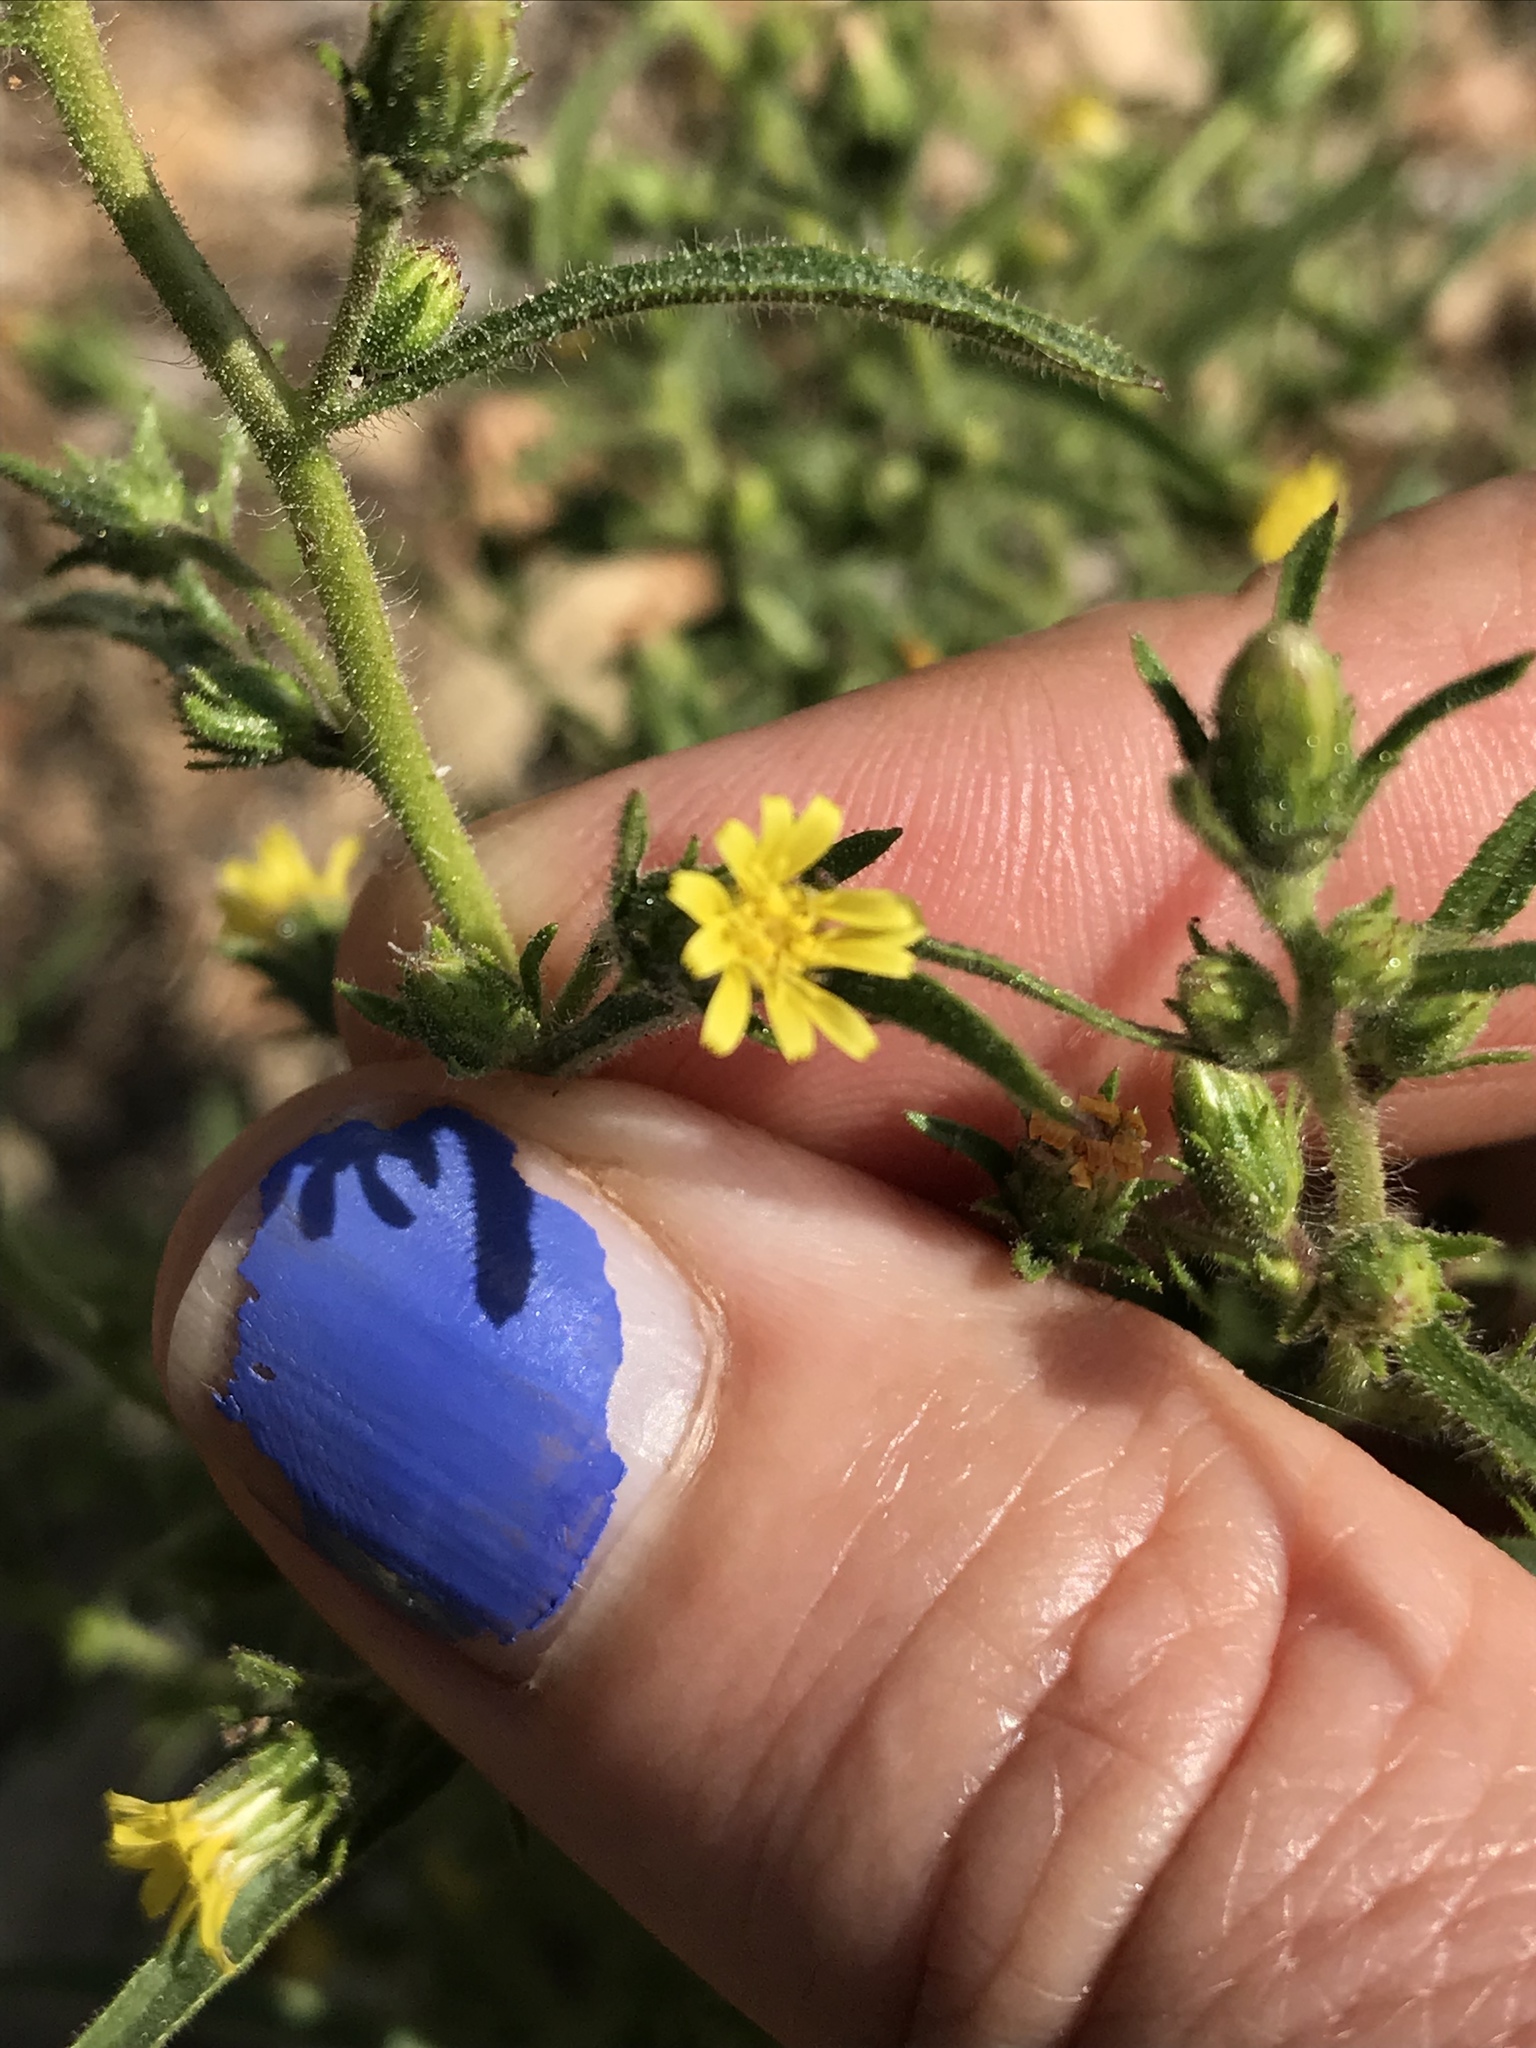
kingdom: Plantae
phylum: Tracheophyta
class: Magnoliopsida
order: Asterales
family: Asteraceae
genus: Dittrichia
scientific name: Dittrichia graveolens
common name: Stinking fleabane
